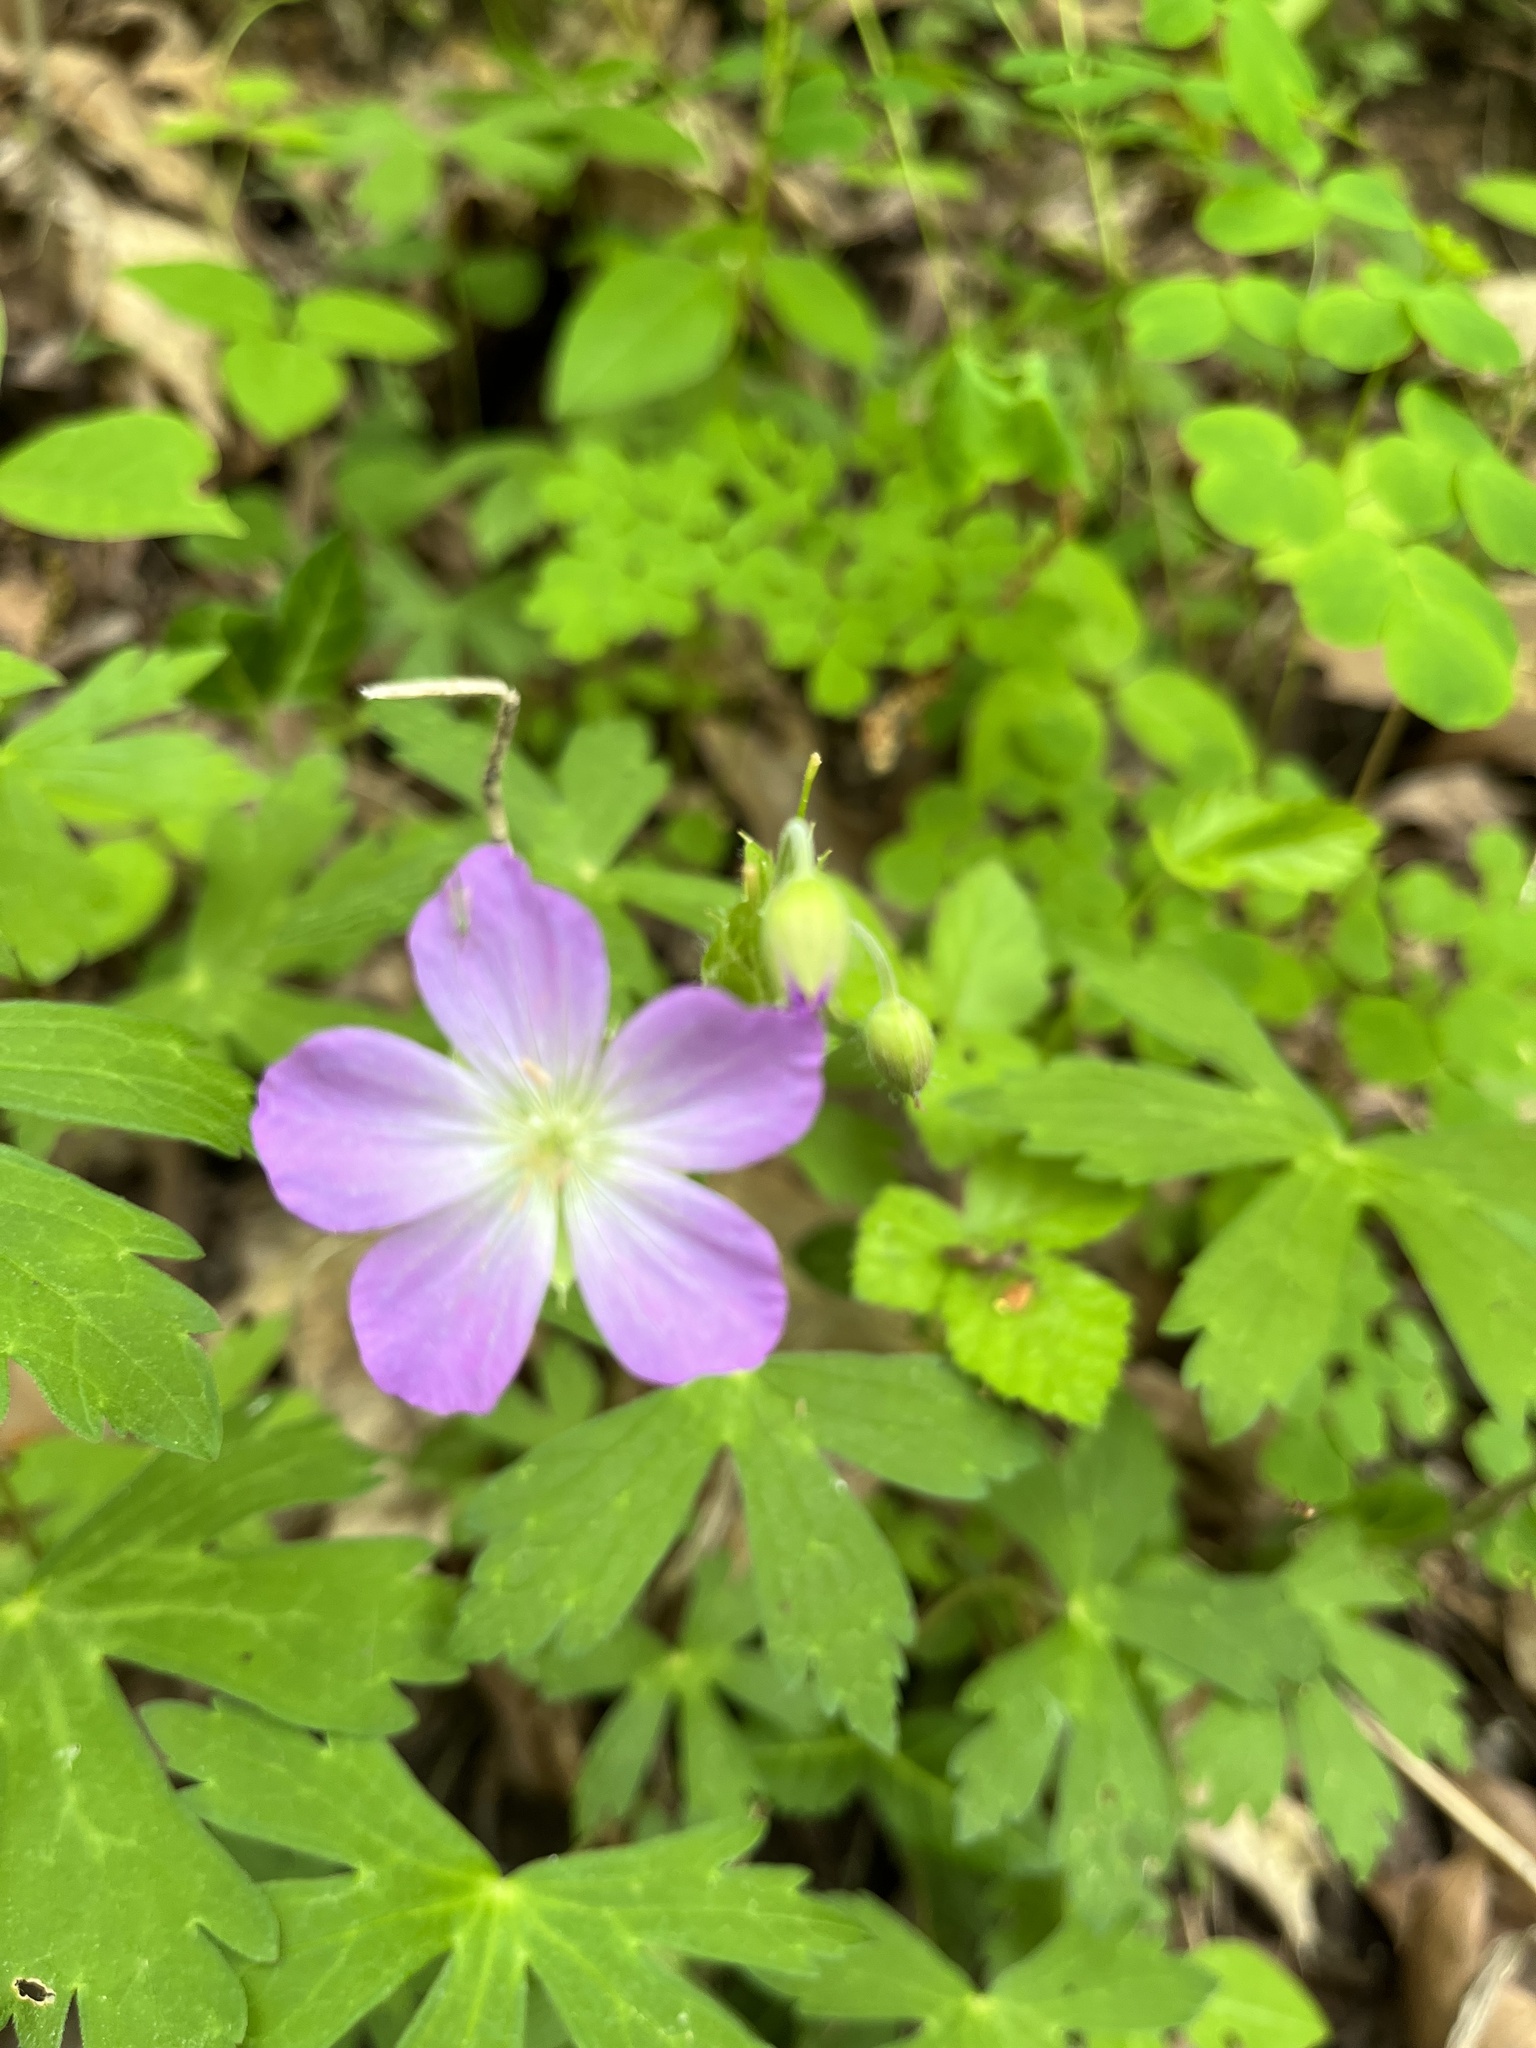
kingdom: Plantae
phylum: Tracheophyta
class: Magnoliopsida
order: Geraniales
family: Geraniaceae
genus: Geranium
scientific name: Geranium maculatum
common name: Spotted geranium
